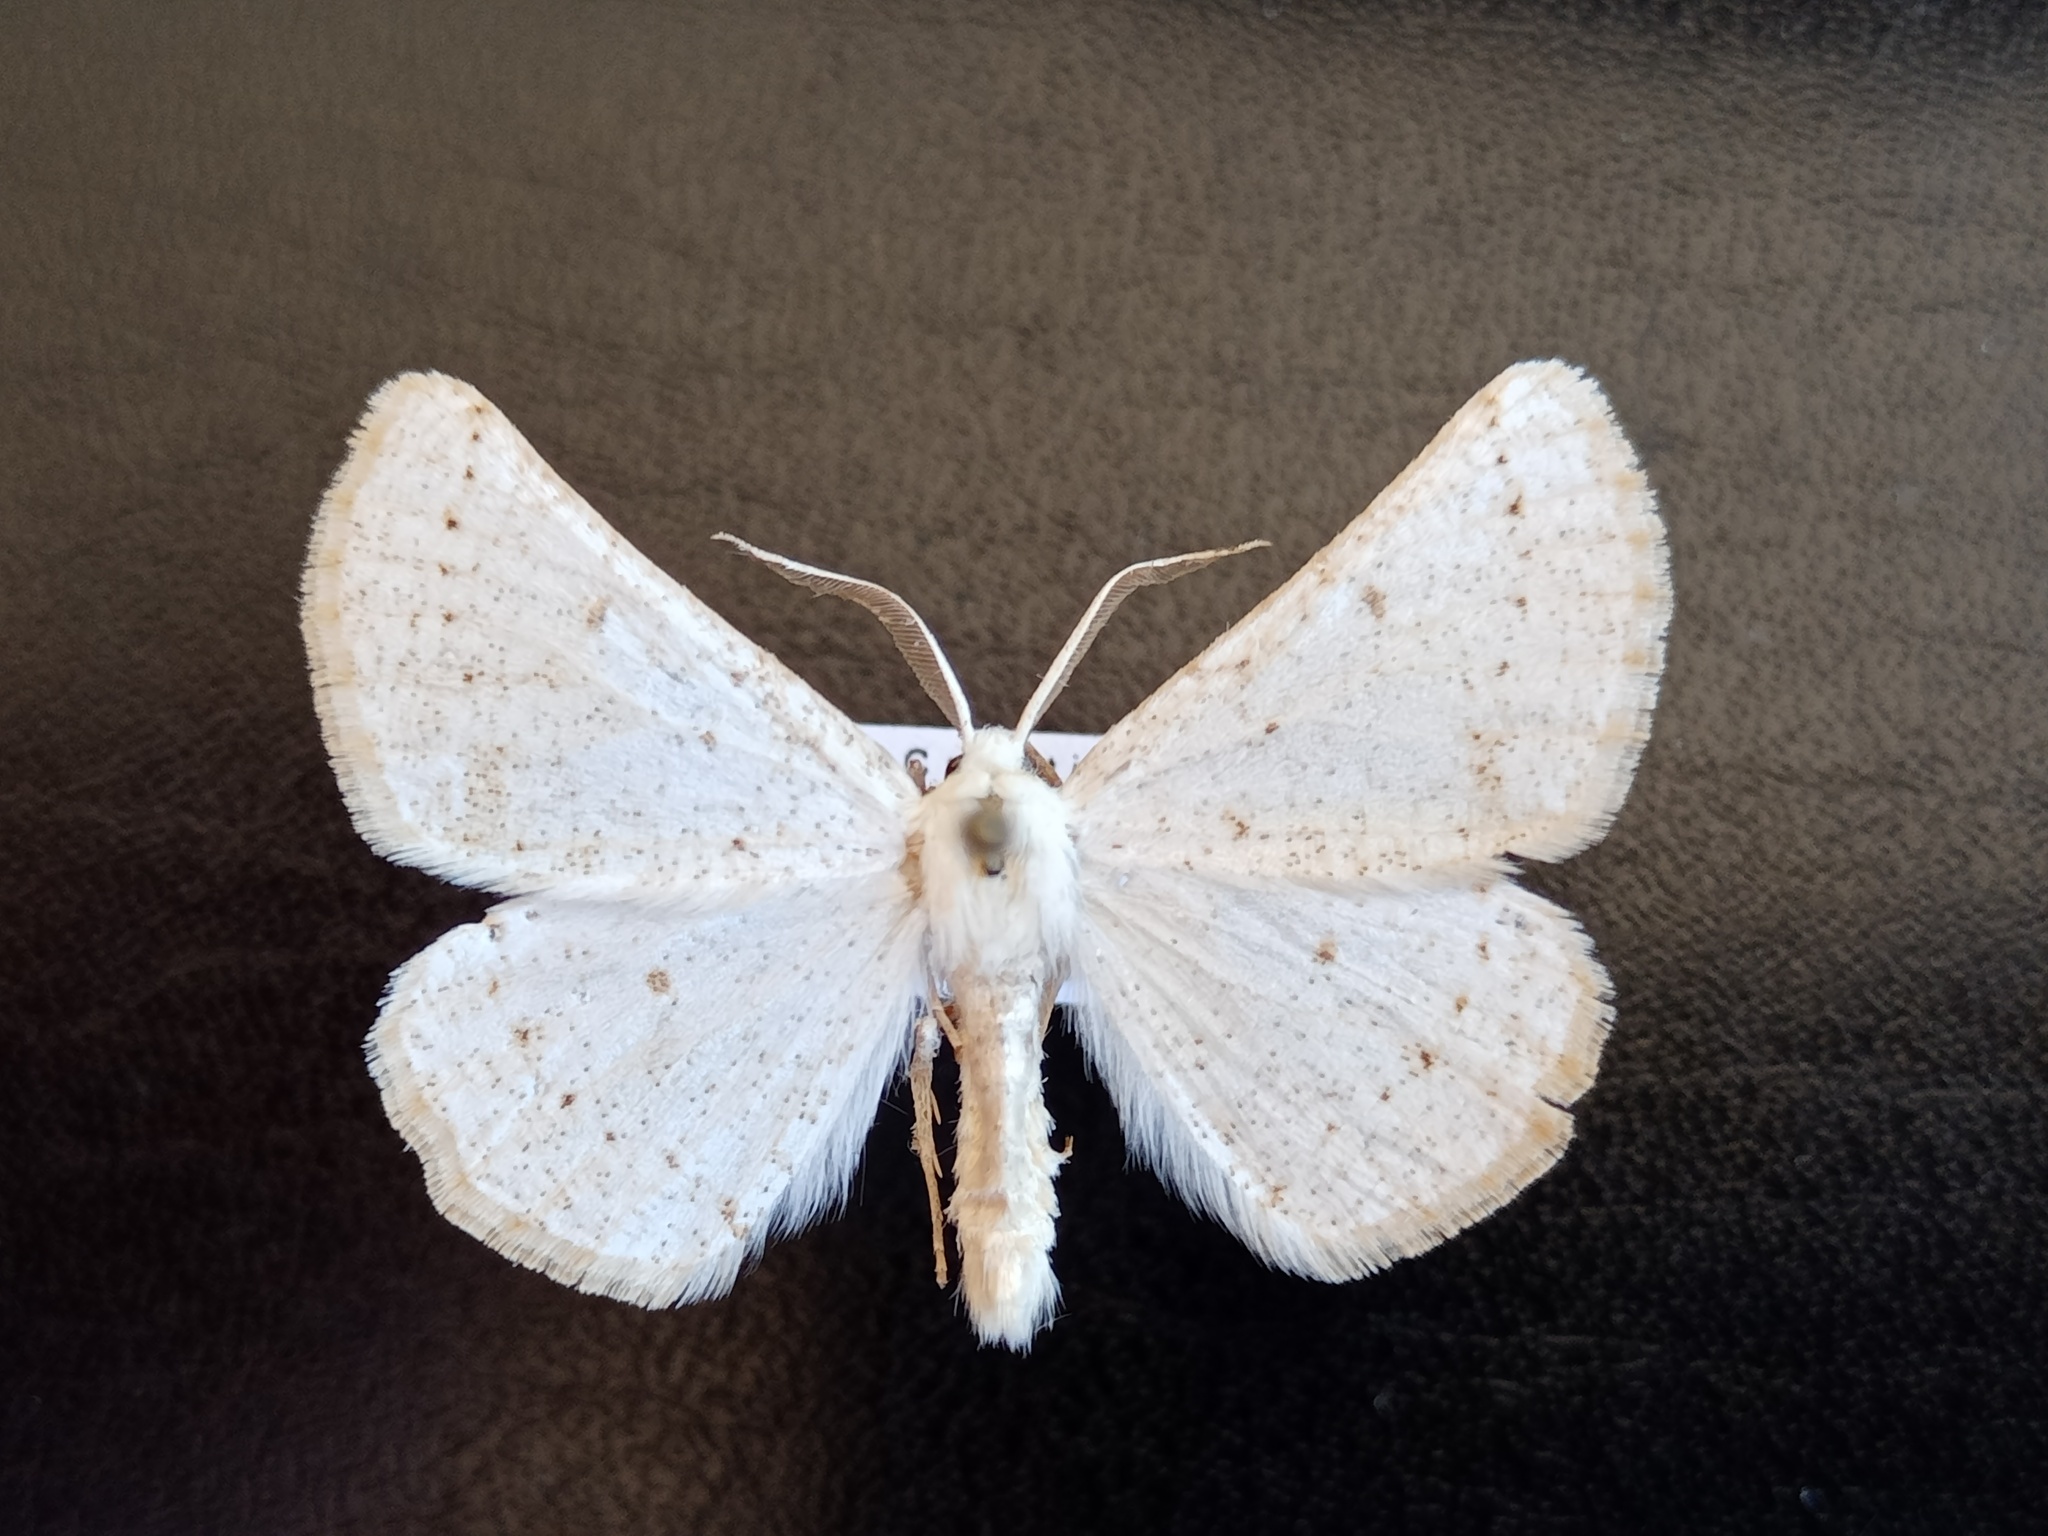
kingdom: Animalia
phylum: Arthropoda
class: Insecta
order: Lepidoptera
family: Geometridae
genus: Dyscia
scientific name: Dyscia innocentaria
